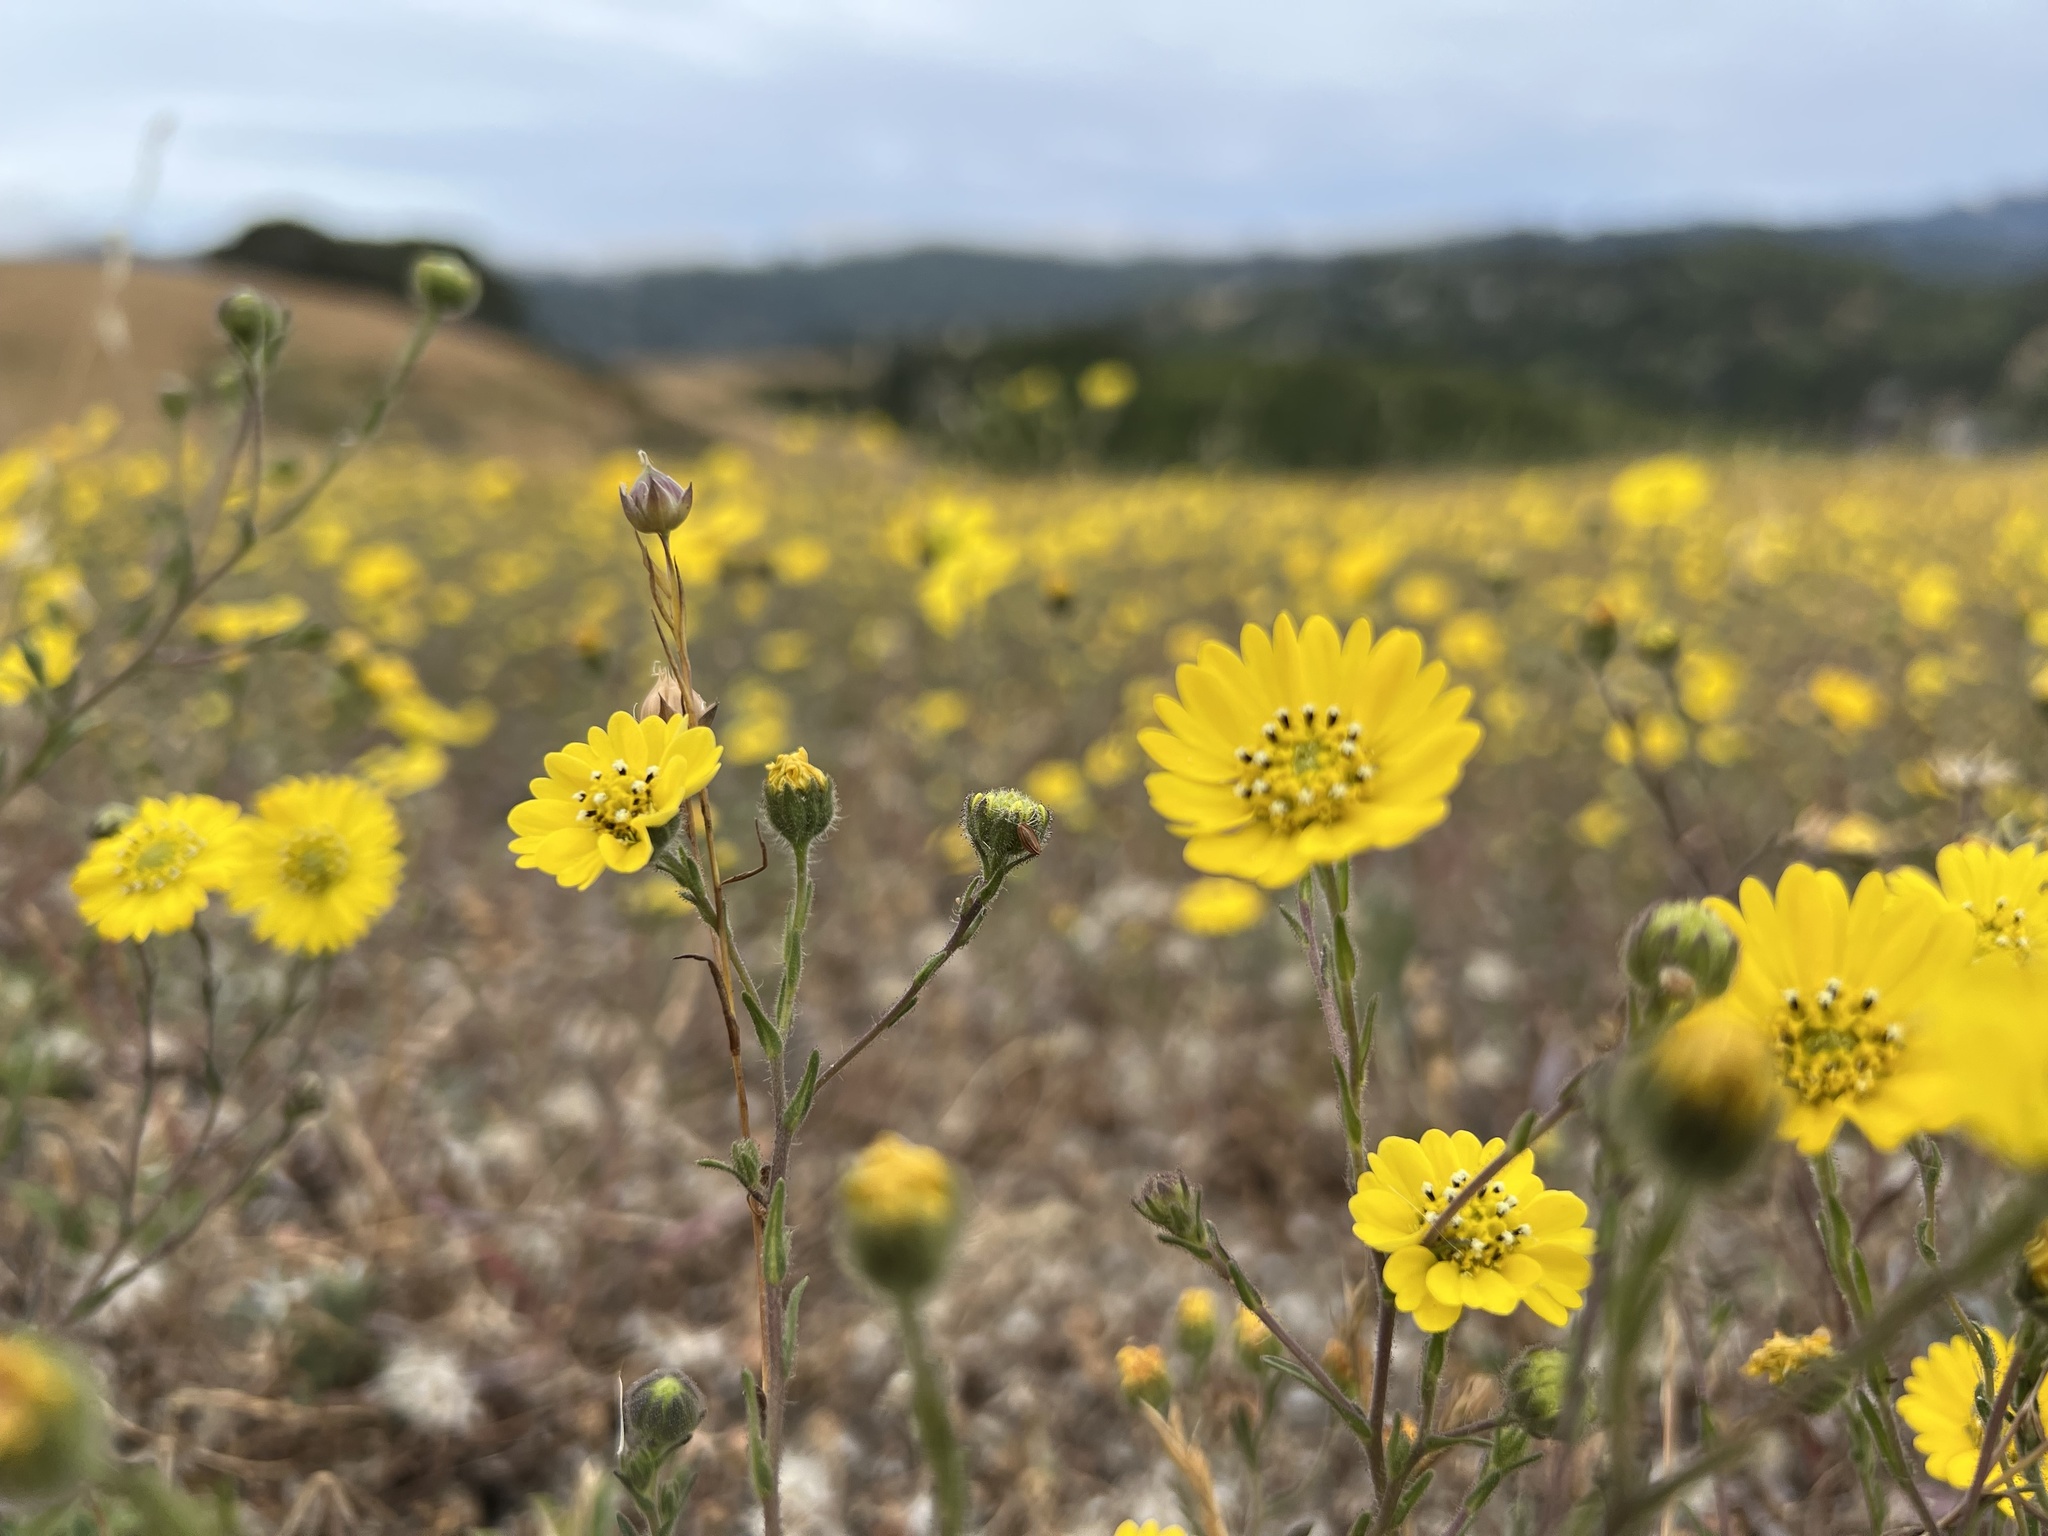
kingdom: Plantae
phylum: Tracheophyta
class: Magnoliopsida
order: Asterales
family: Asteraceae
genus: Hemizonia
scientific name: Hemizonia congesta
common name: Hayfield tarweed
